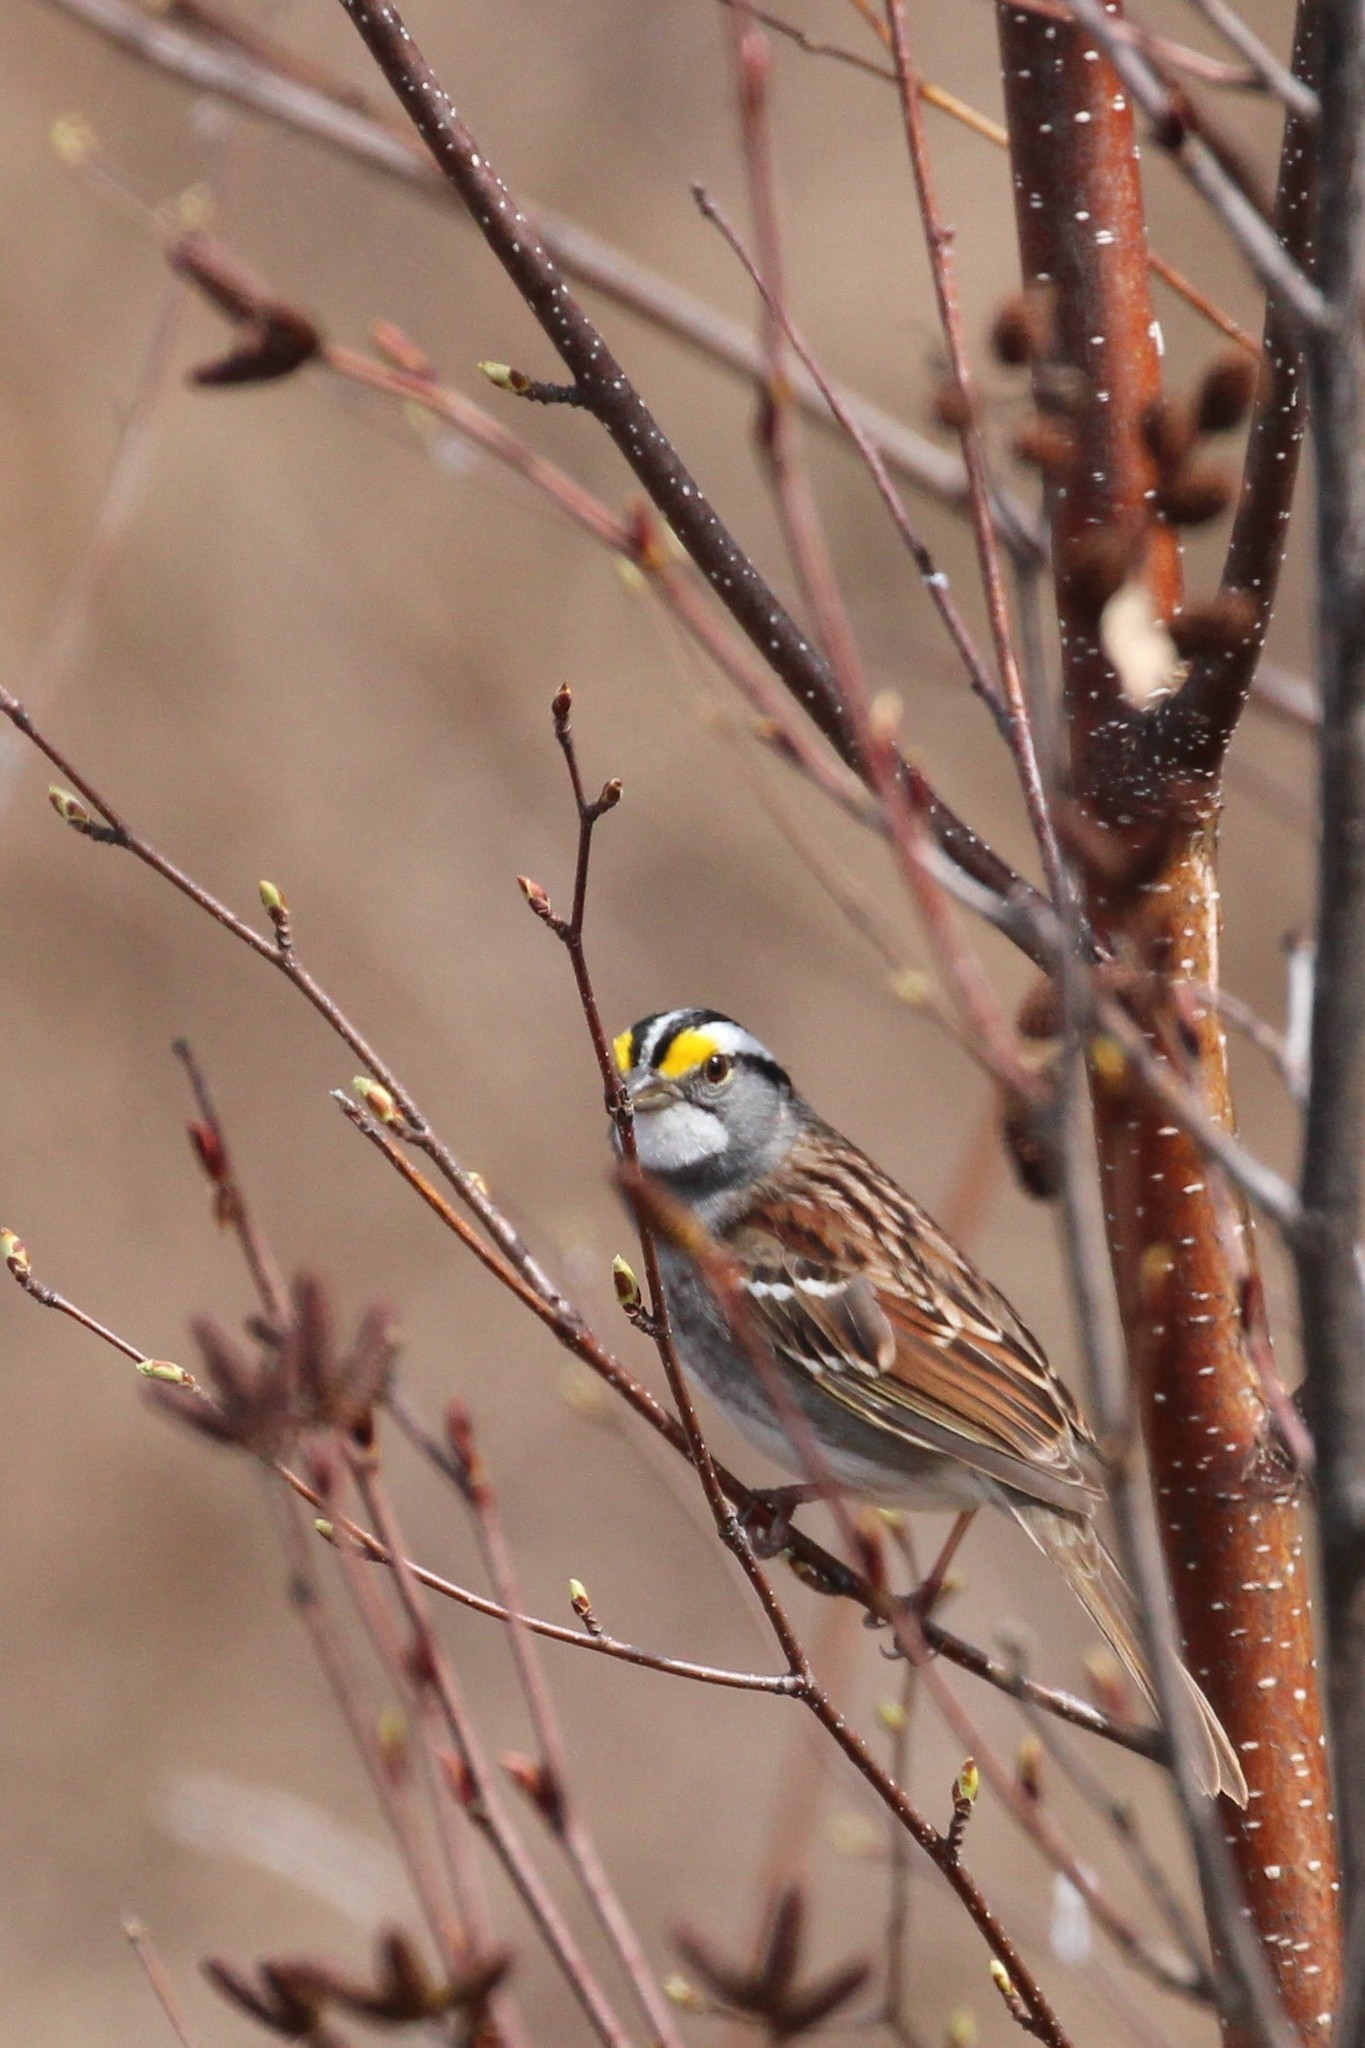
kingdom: Animalia
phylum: Chordata
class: Aves
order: Passeriformes
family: Passerellidae
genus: Zonotrichia
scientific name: Zonotrichia albicollis
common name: White-throated sparrow
